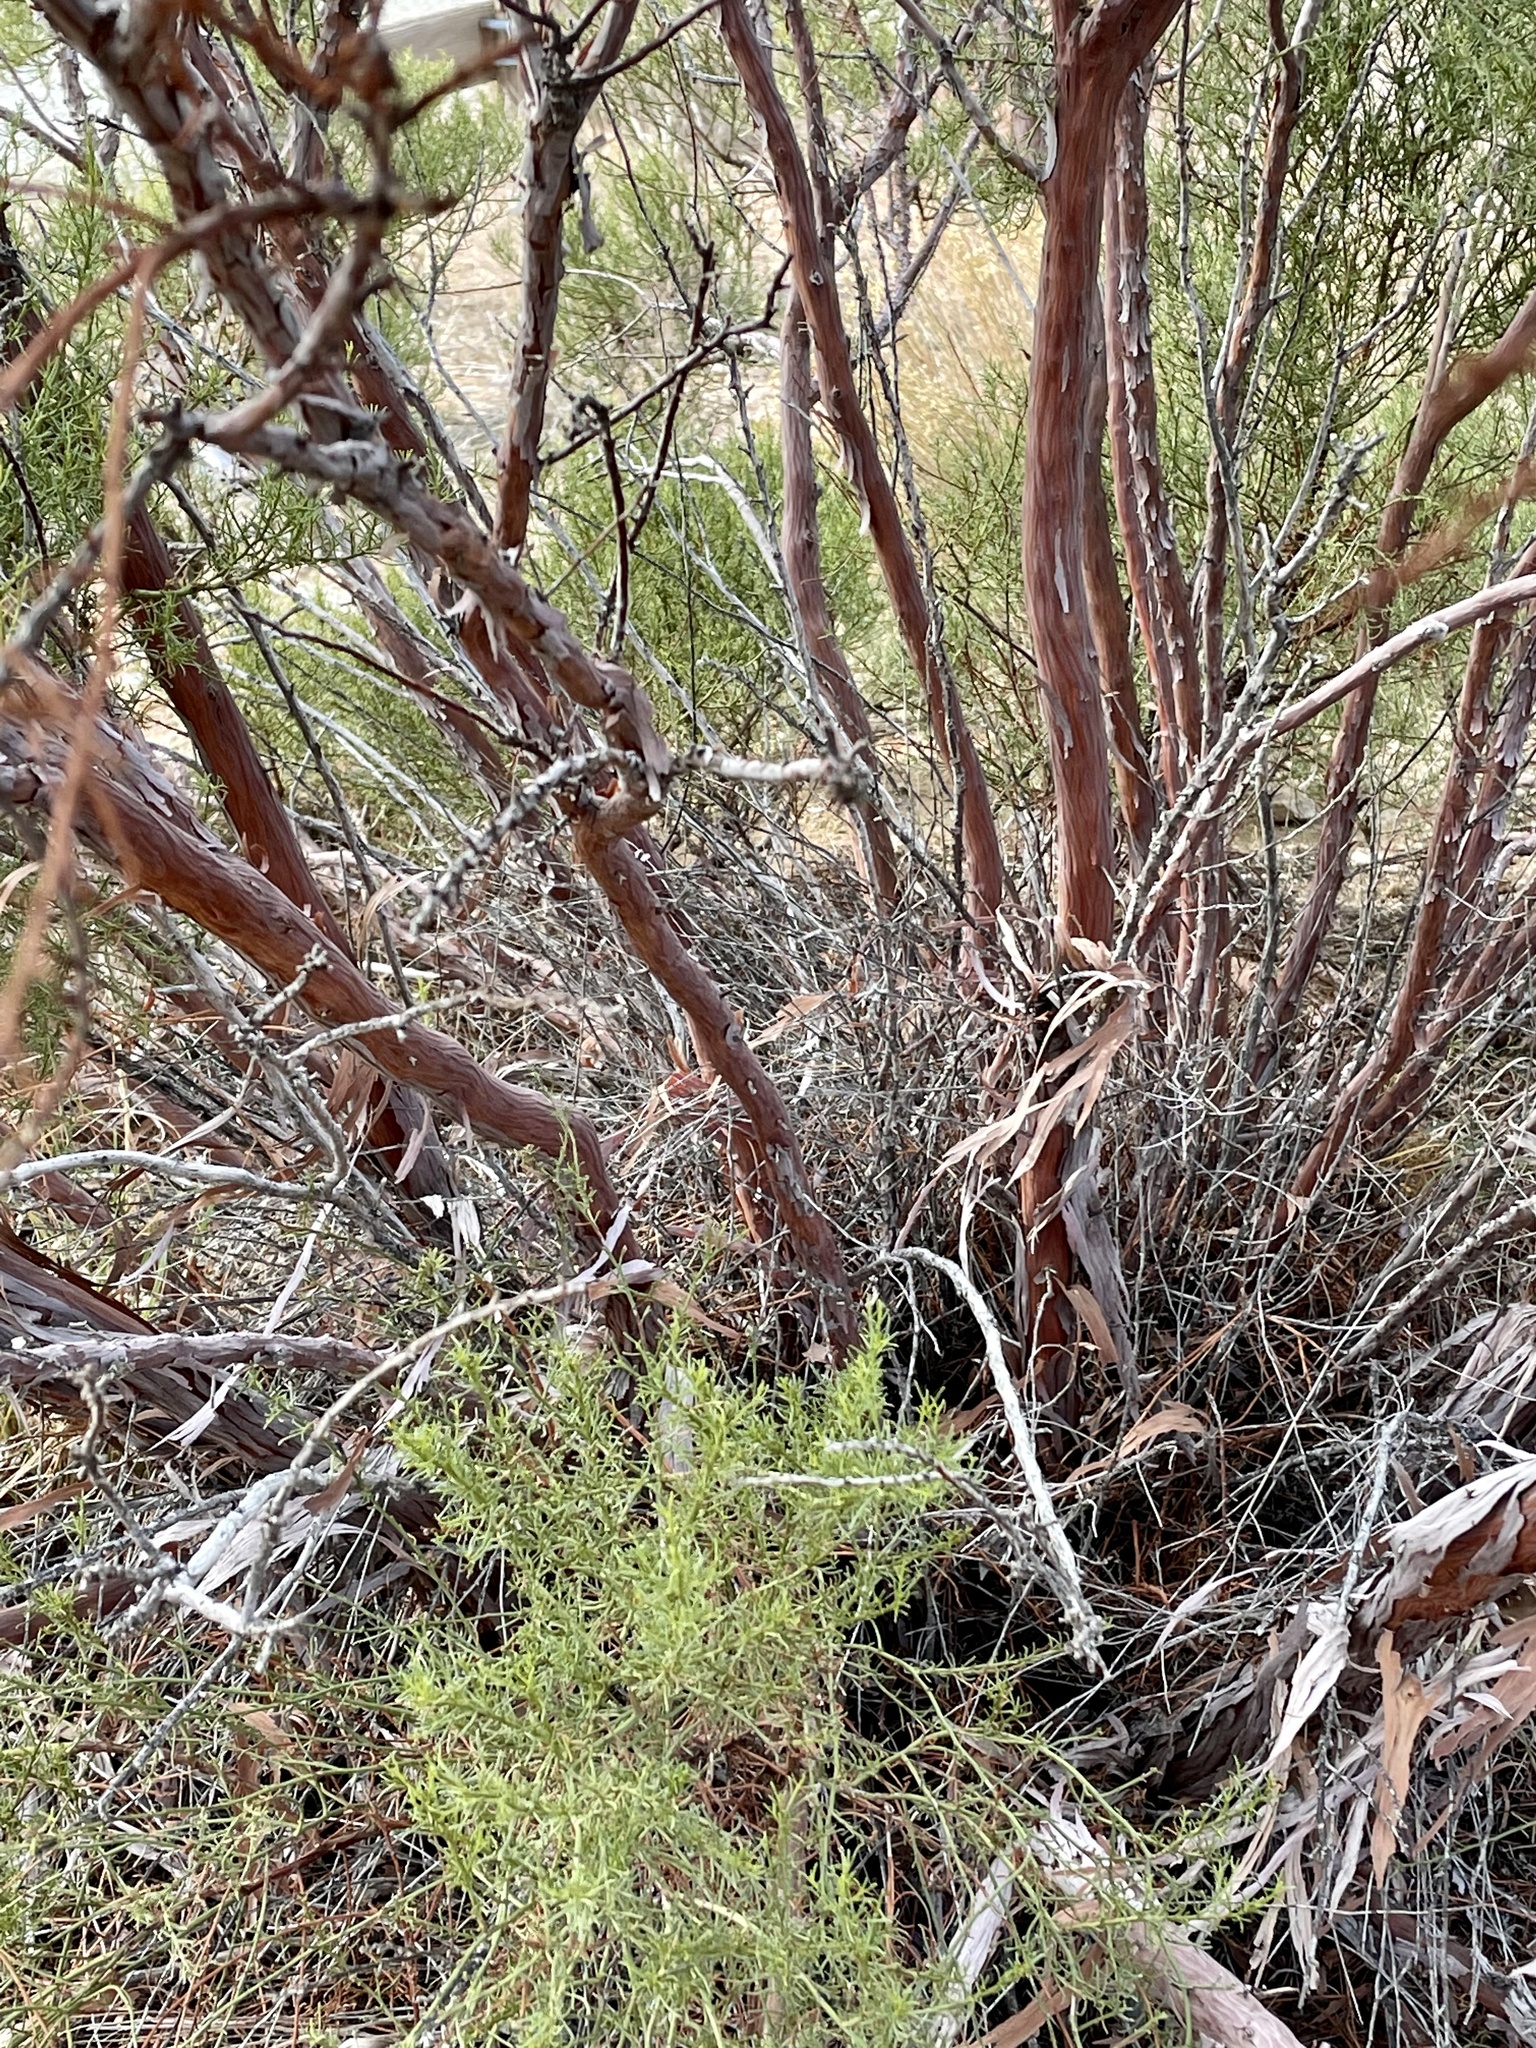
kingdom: Plantae
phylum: Tracheophyta
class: Magnoliopsida
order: Rosales
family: Rosaceae
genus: Adenostoma
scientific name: Adenostoma sparsifolium
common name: Red shank
